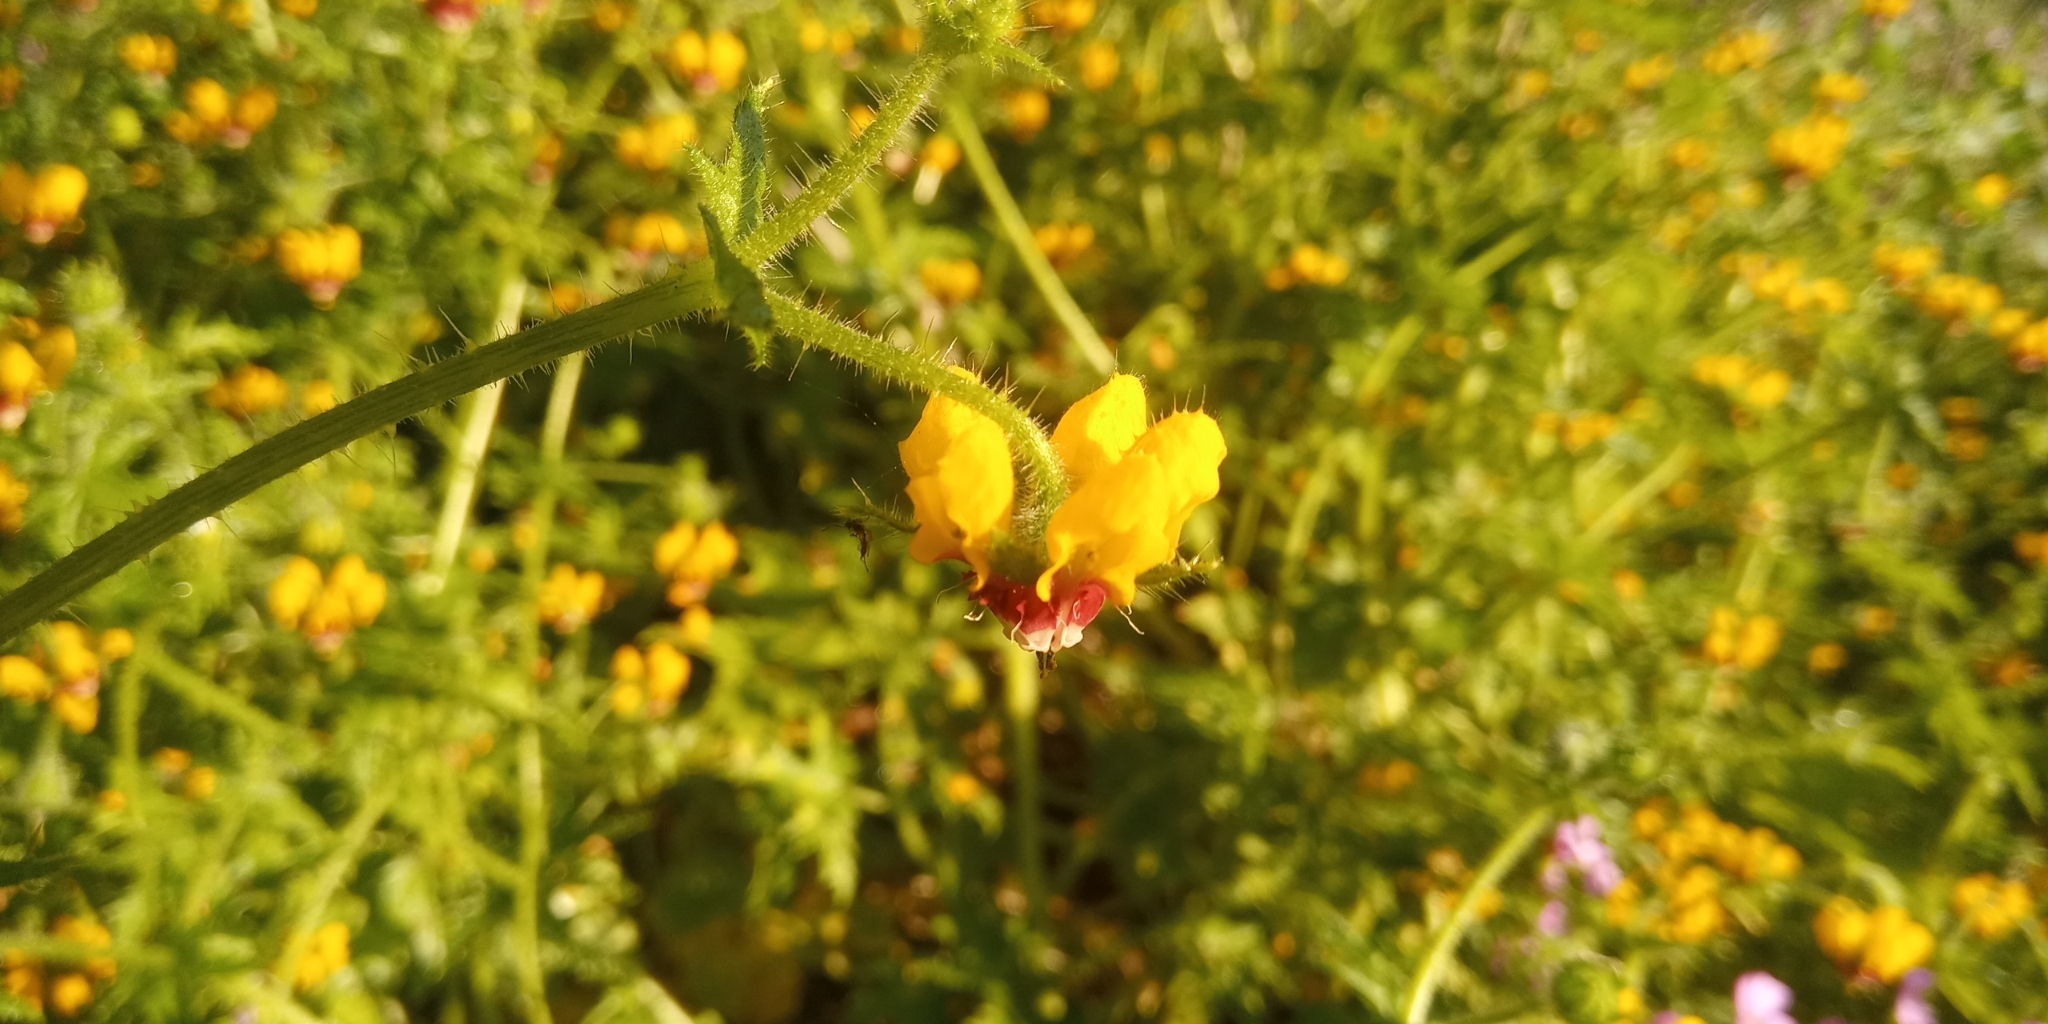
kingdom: Plantae
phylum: Tracheophyta
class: Magnoliopsida
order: Cornales
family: Loasaceae
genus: Loasa
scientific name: Loasa tricolor
